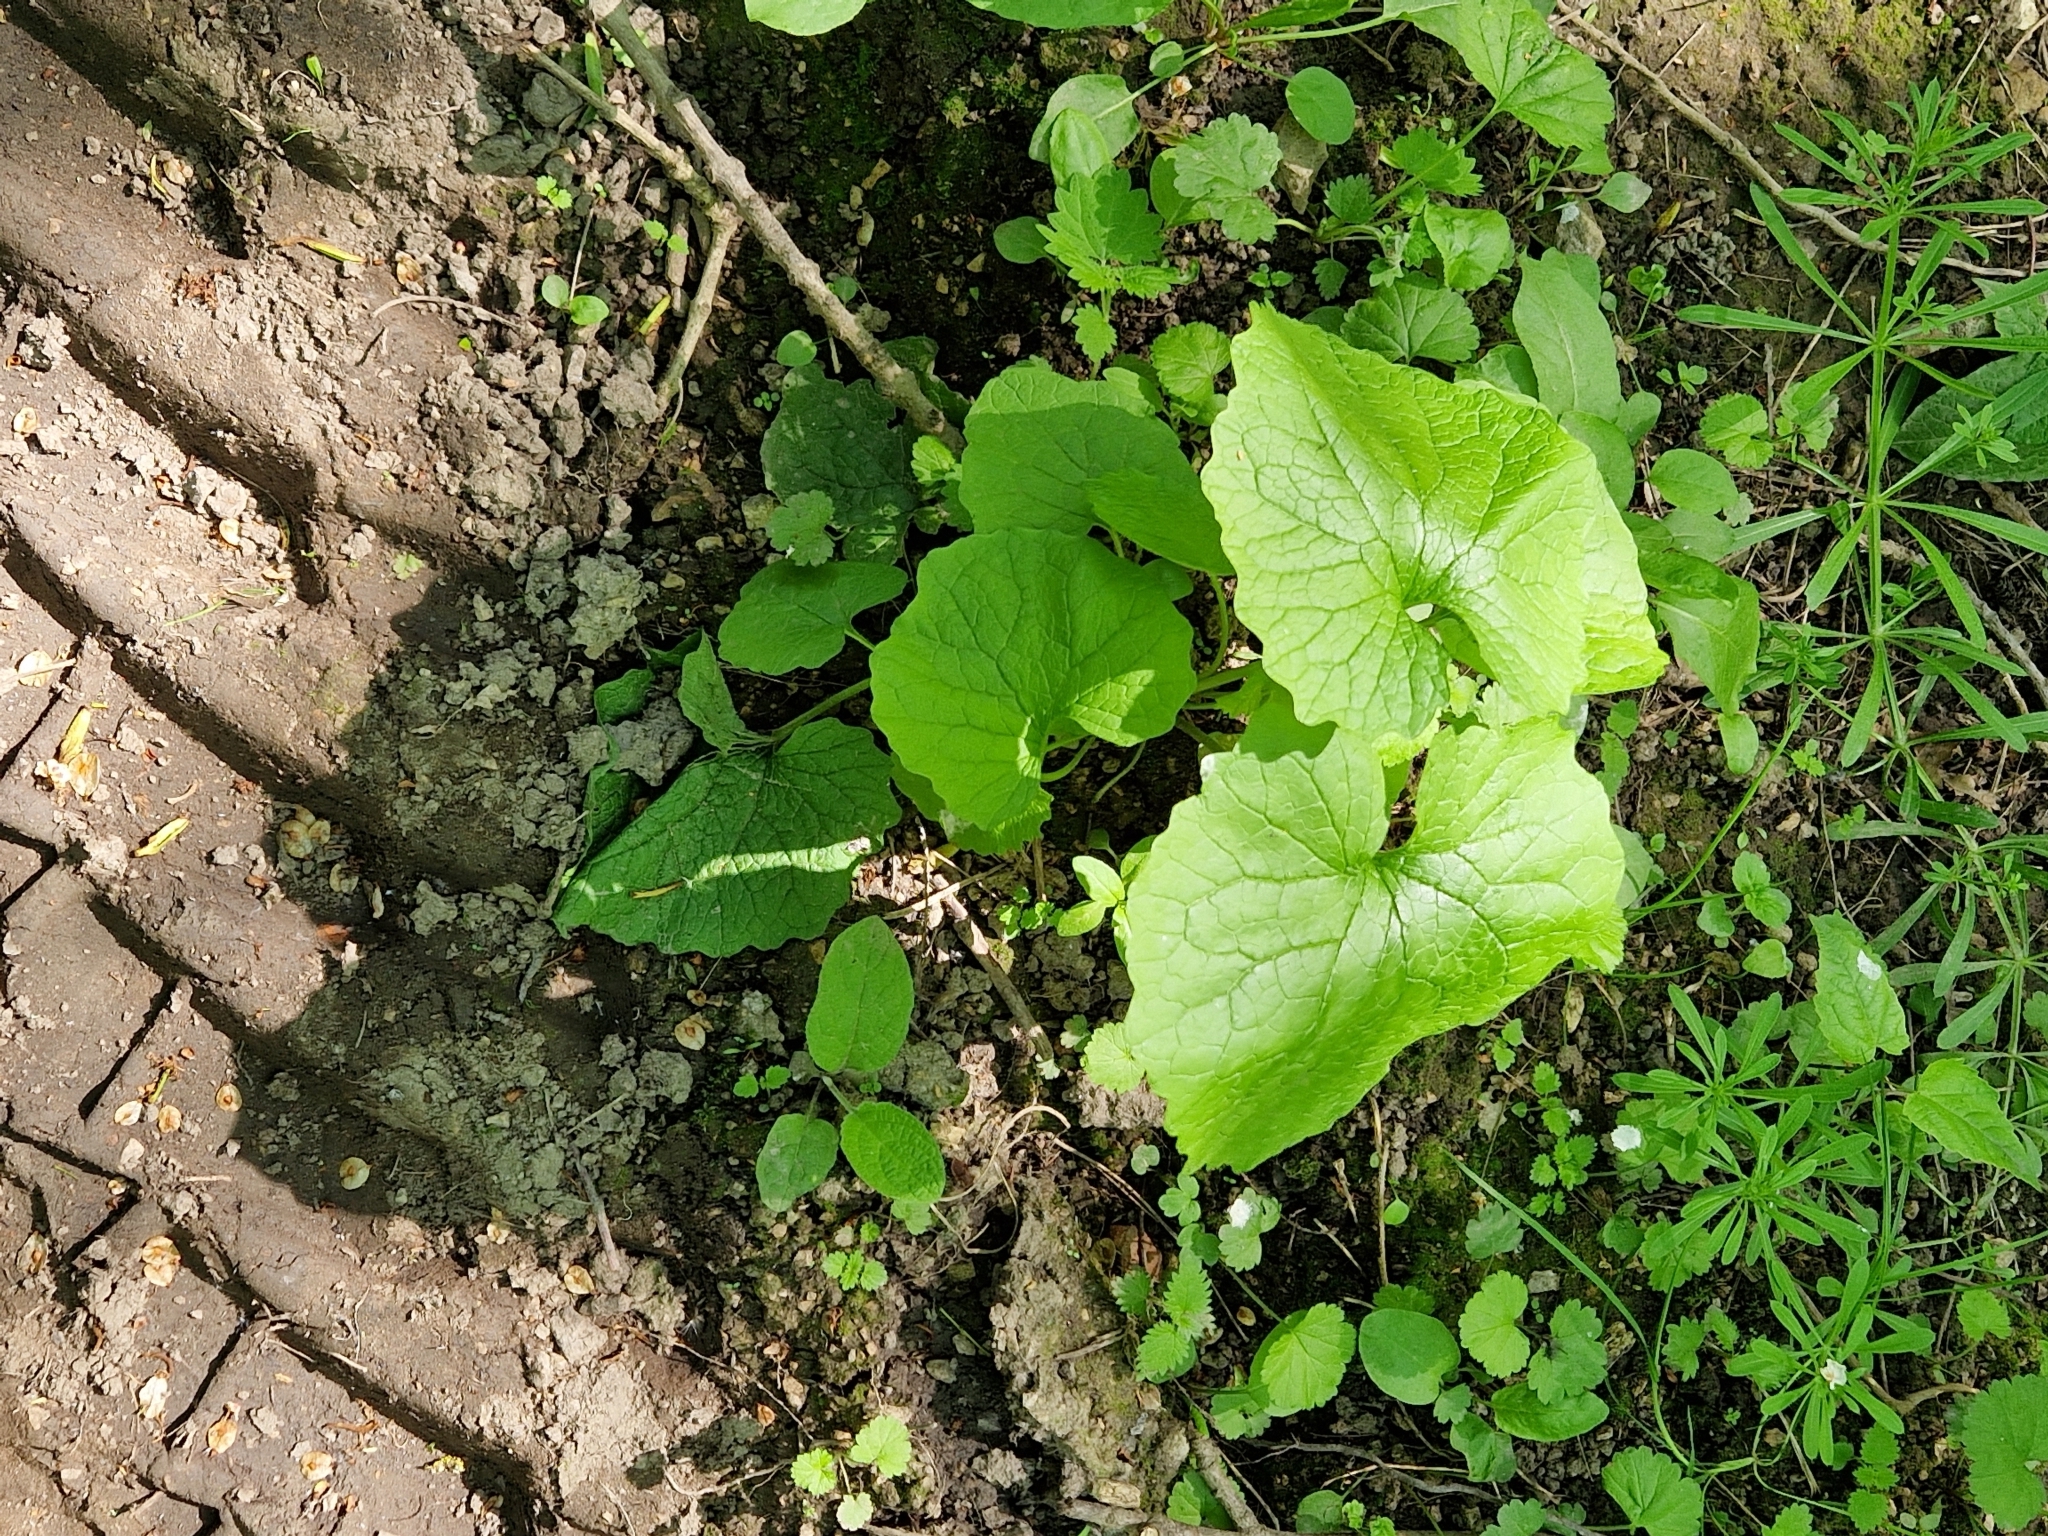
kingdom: Plantae
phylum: Tracheophyta
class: Magnoliopsida
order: Brassicales
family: Brassicaceae
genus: Alliaria
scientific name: Alliaria petiolata
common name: Garlic mustard
